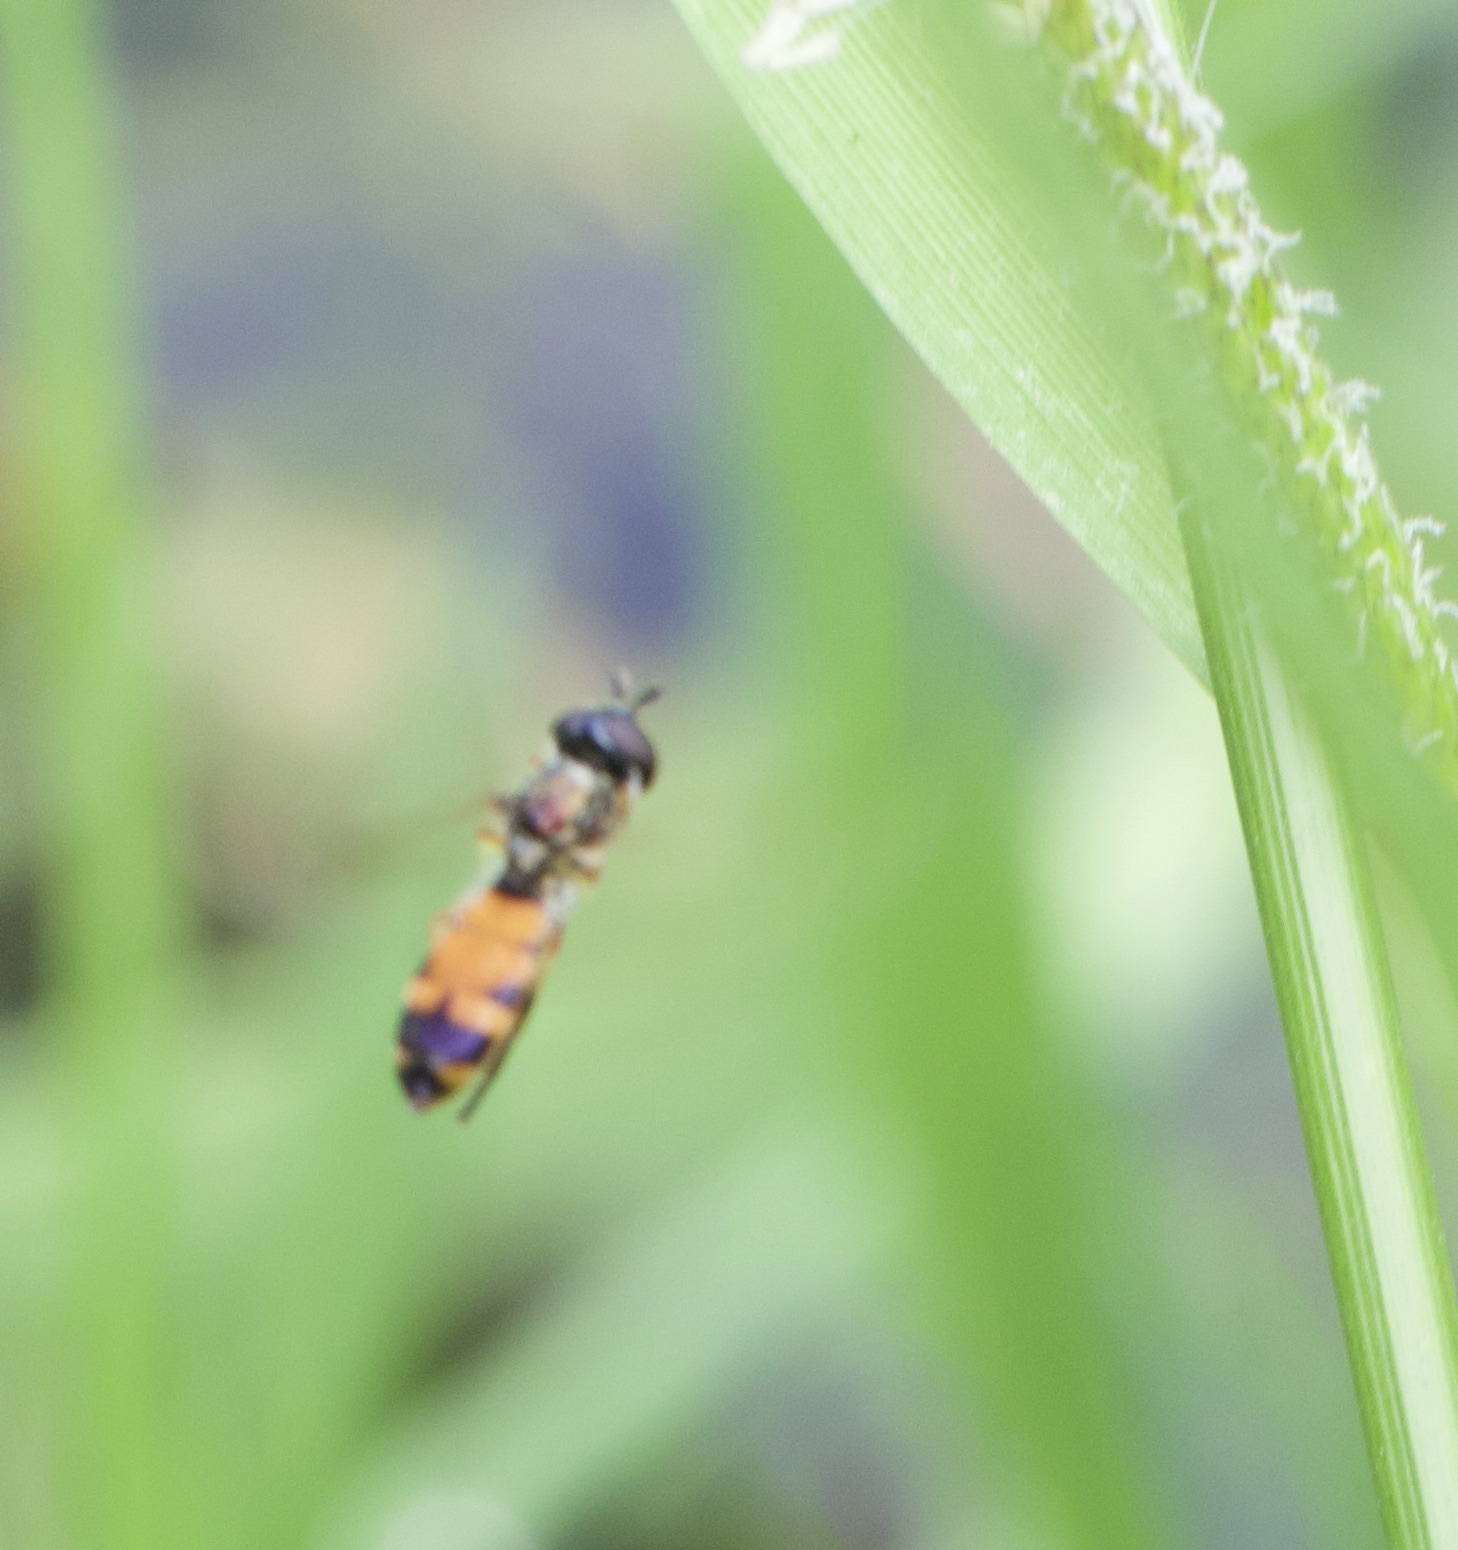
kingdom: Animalia
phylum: Arthropoda
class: Insecta
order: Diptera
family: Syrphidae
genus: Pyrophaena
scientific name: Pyrophaena granditarsa
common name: Hornhand sedgesitter
